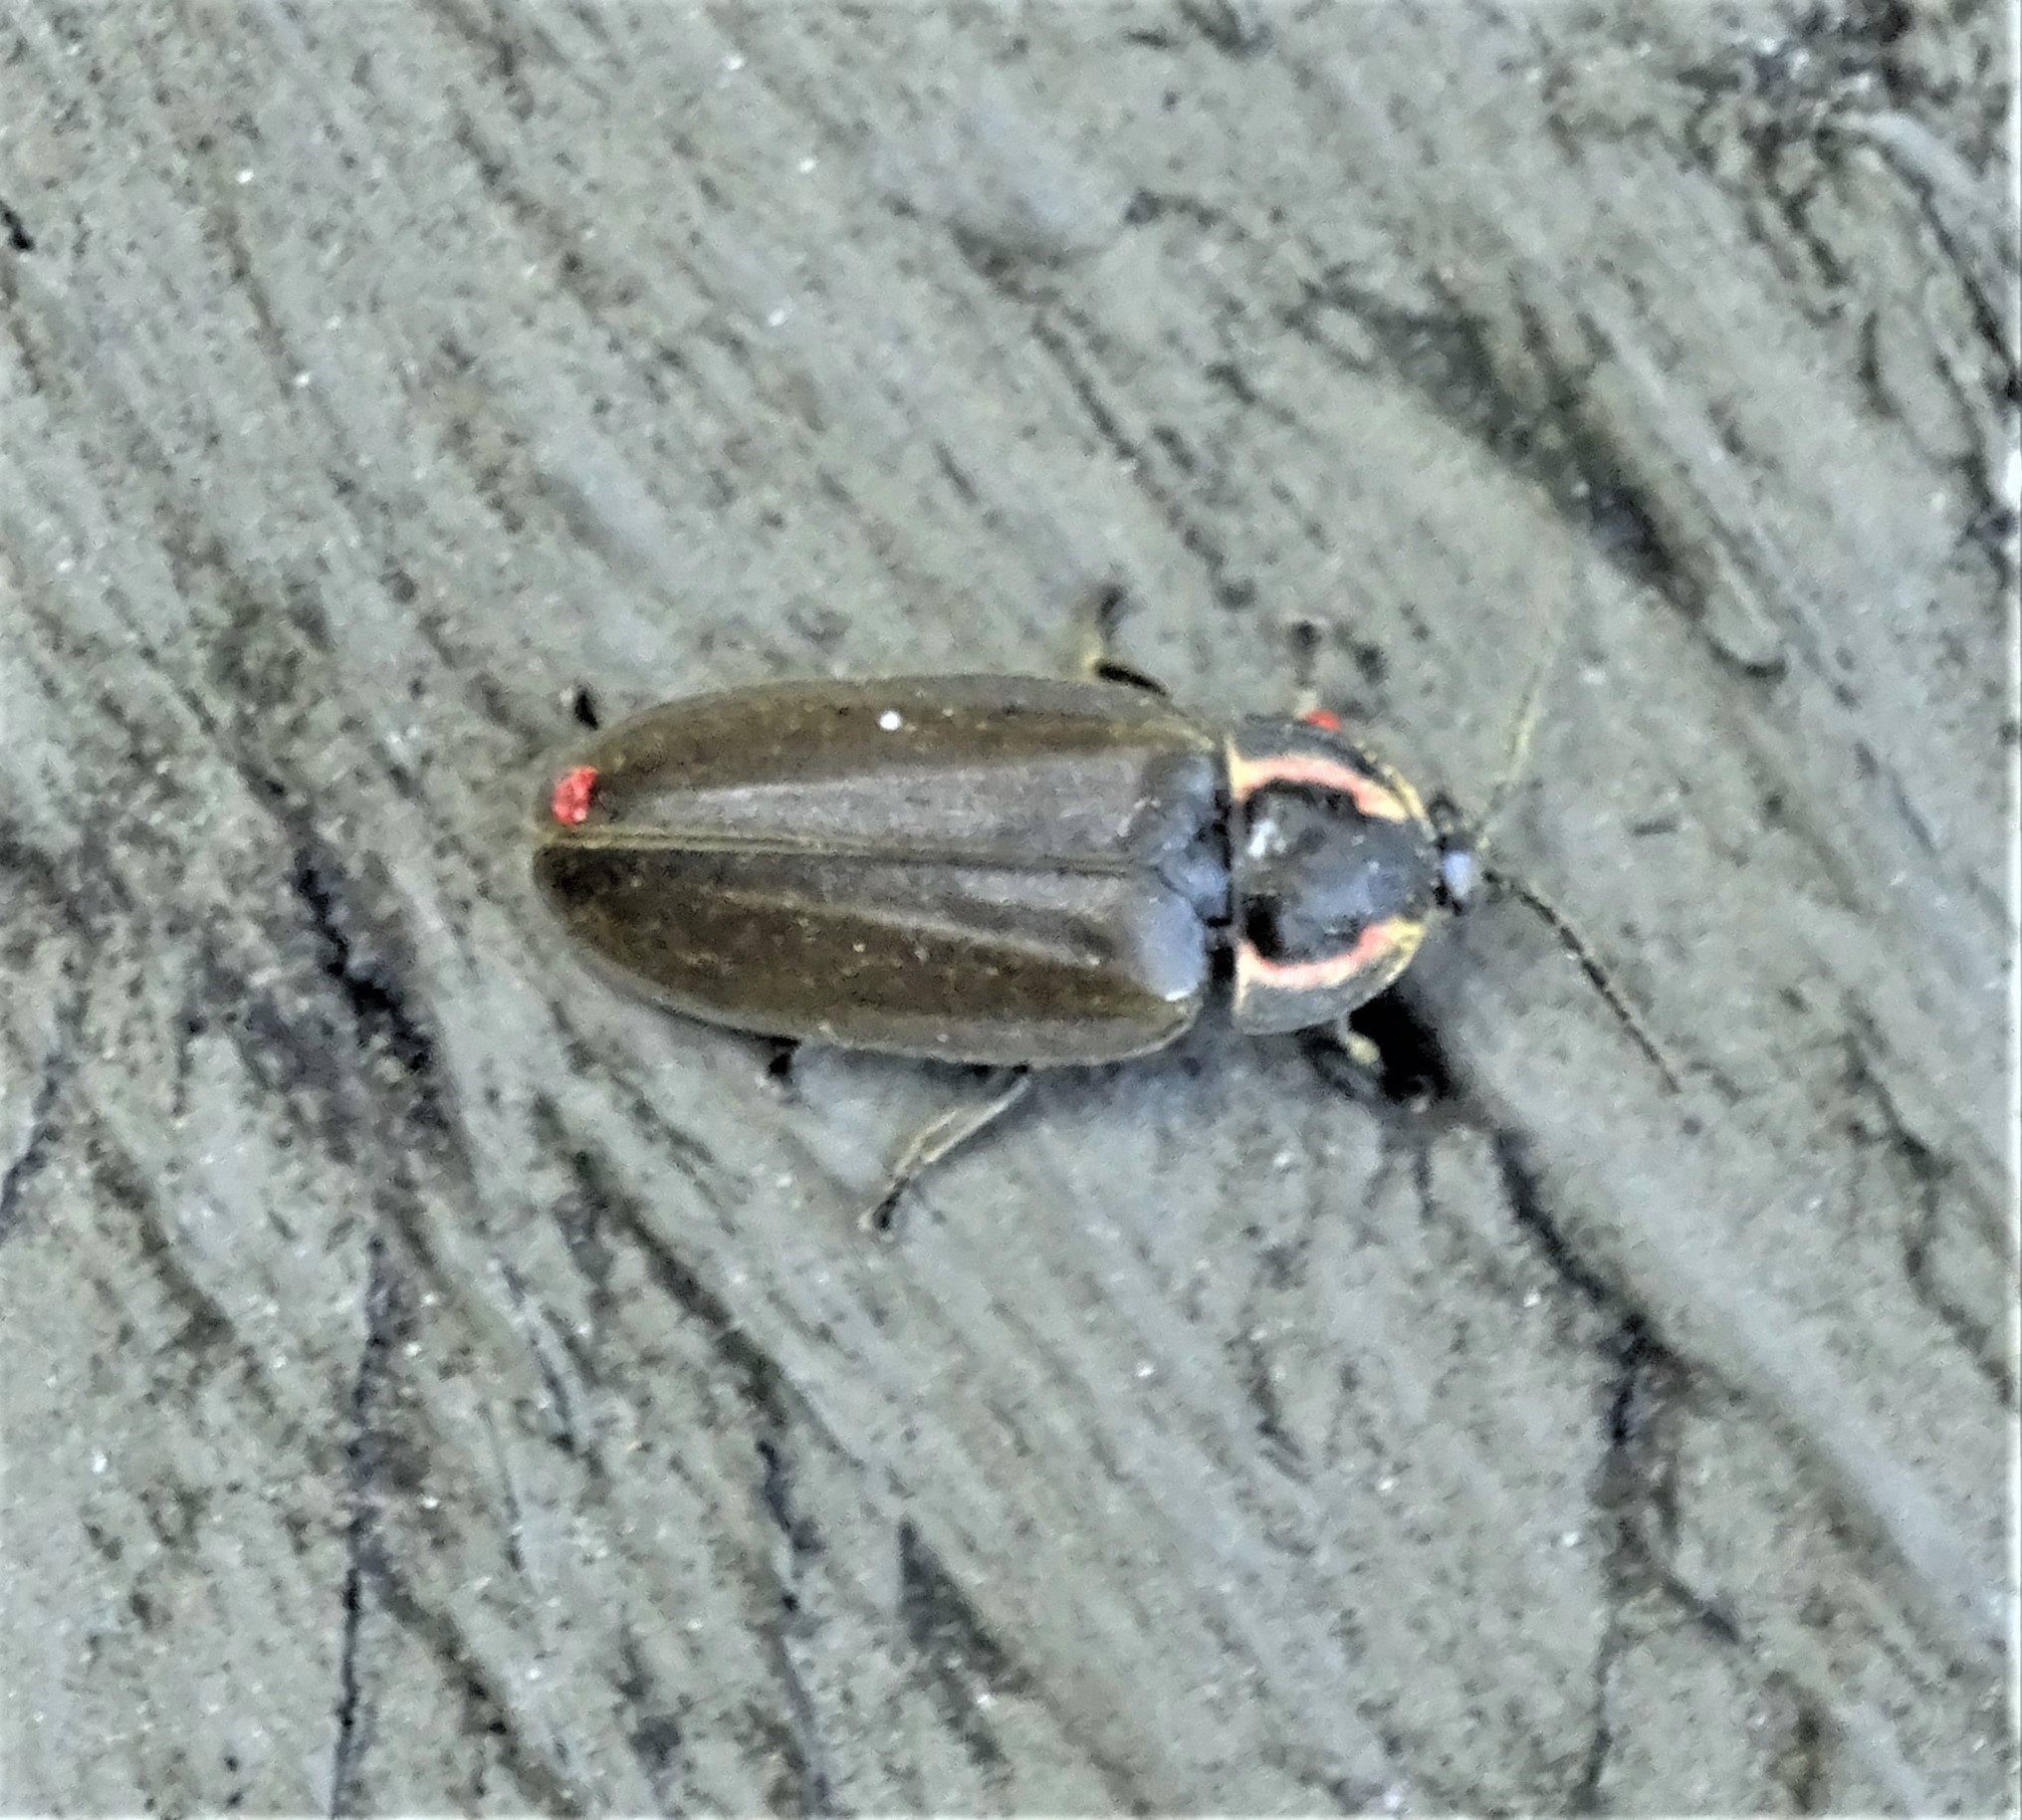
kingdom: Animalia
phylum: Arthropoda
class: Insecta
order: Coleoptera
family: Lampyridae
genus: Photinus
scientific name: Photinus corrusca
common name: Winter firefly
